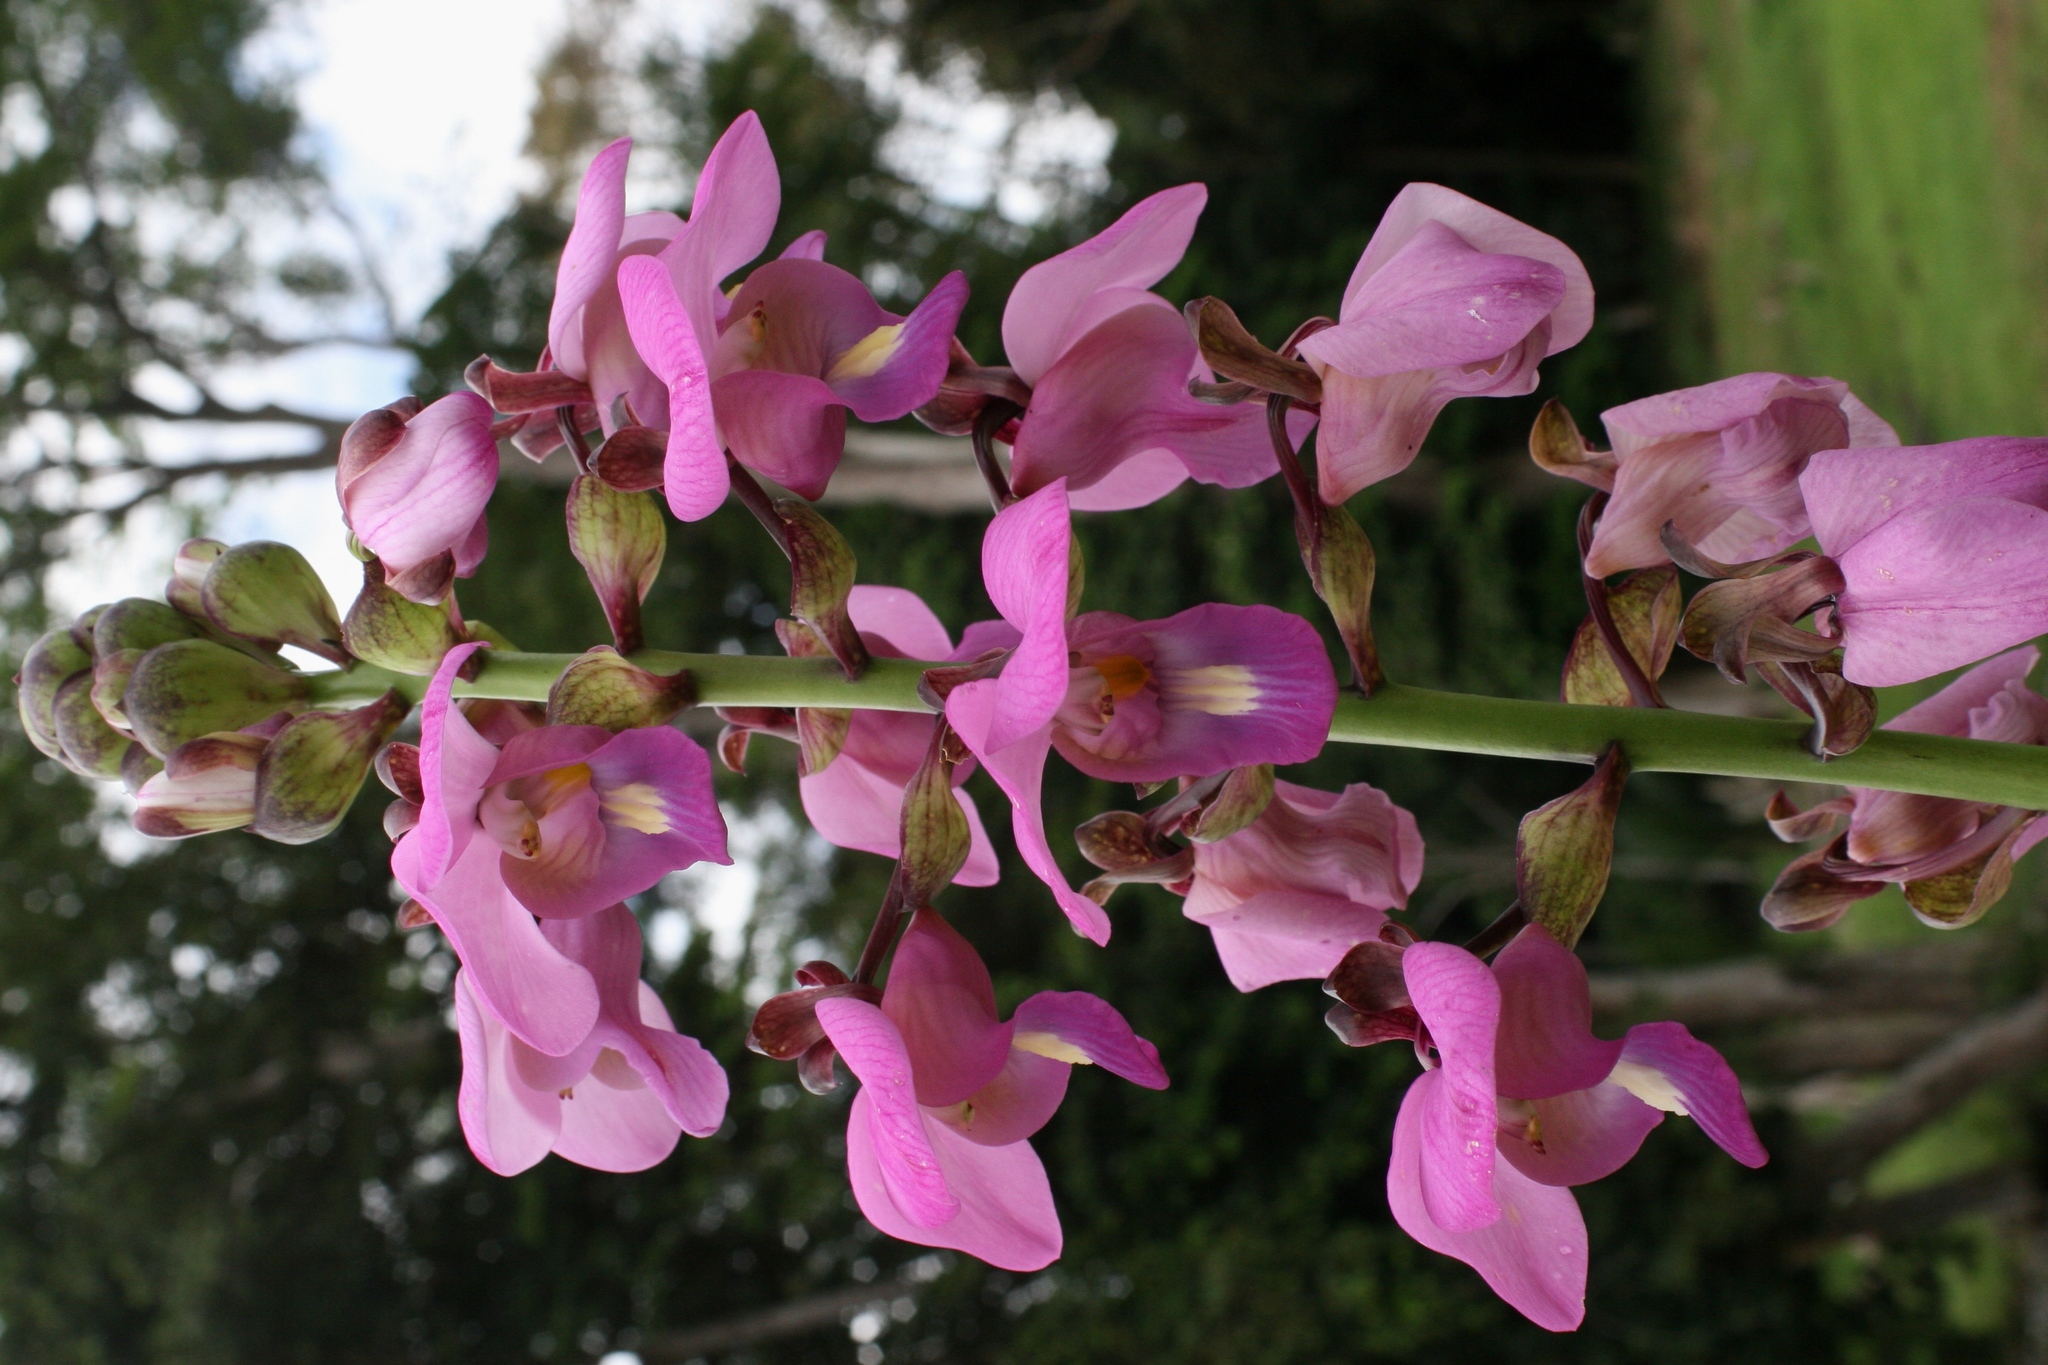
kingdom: Plantae
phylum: Tracheophyta
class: Liliopsida
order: Asparagales
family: Orchidaceae
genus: Eulophia
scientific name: Eulophia bouliawongo
